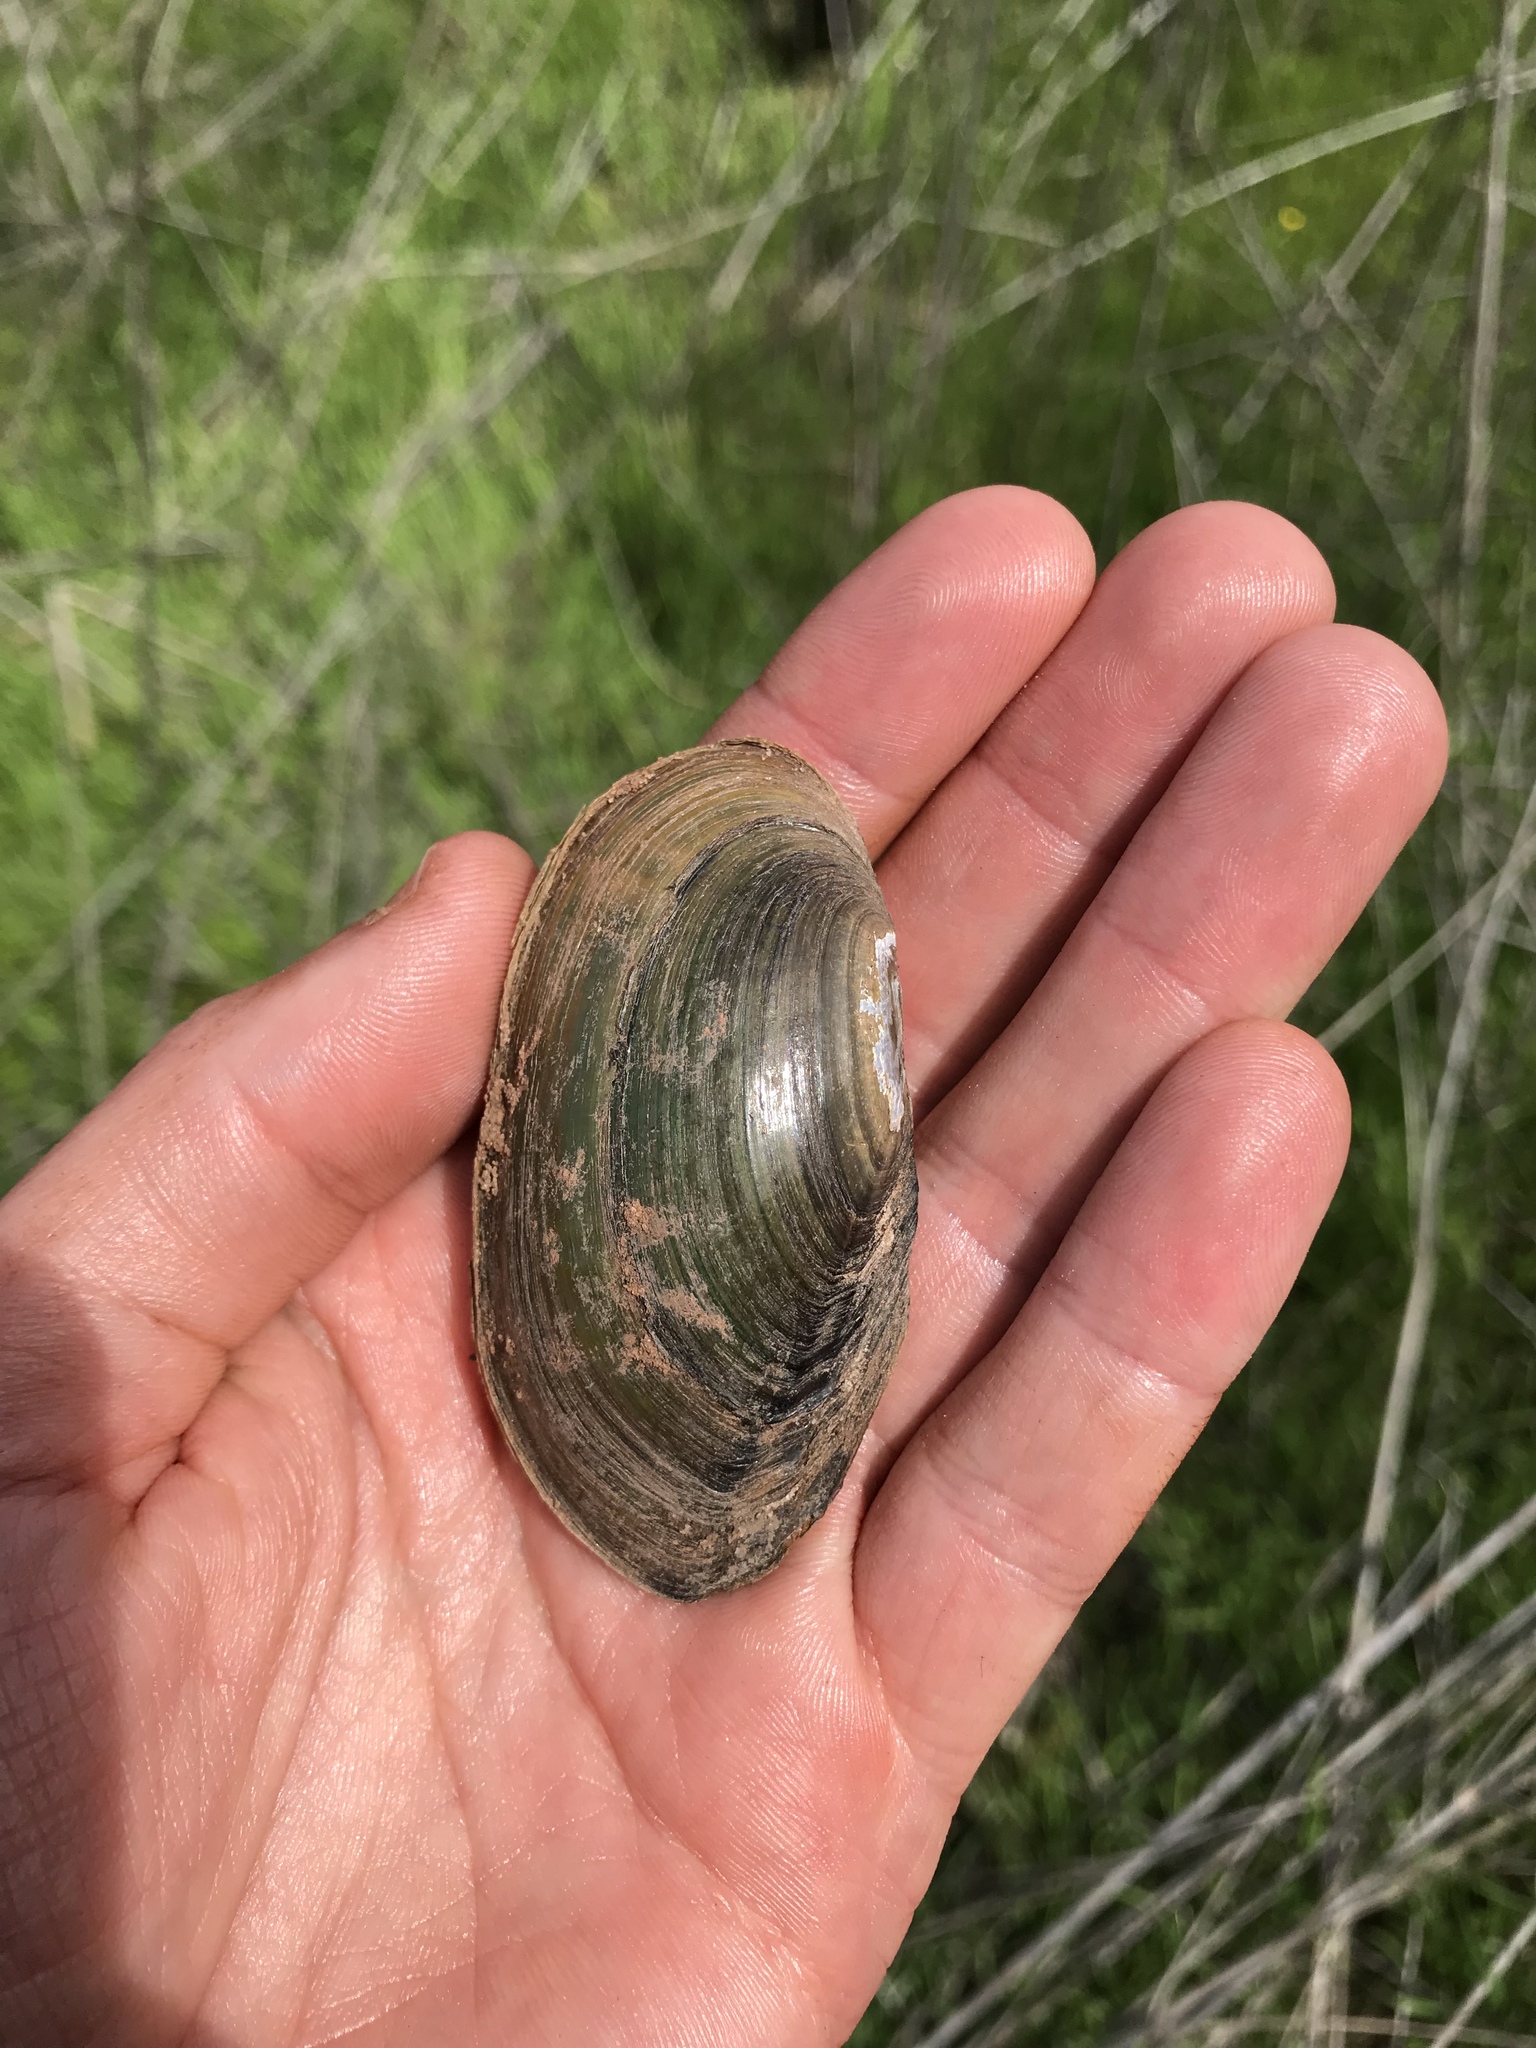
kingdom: Animalia
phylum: Mollusca
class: Bivalvia
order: Unionida
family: Unionidae
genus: Utterbackia
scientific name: Utterbackia imbecillis
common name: Paper pondshell
